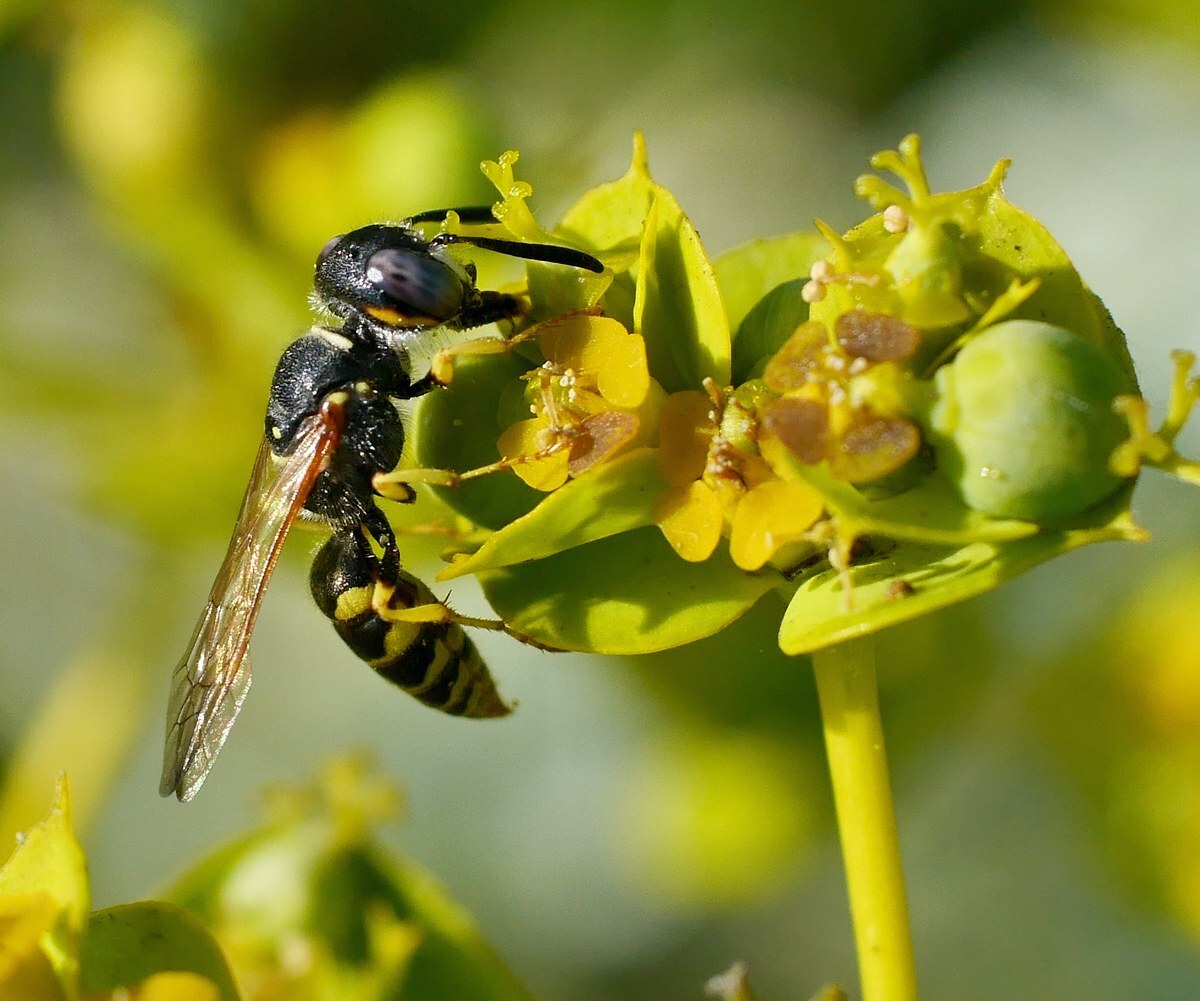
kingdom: Animalia
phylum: Arthropoda
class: Insecta
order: Hymenoptera
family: Crabronidae
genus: Philanthus
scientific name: Philanthus triangulum
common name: Bee wolf
